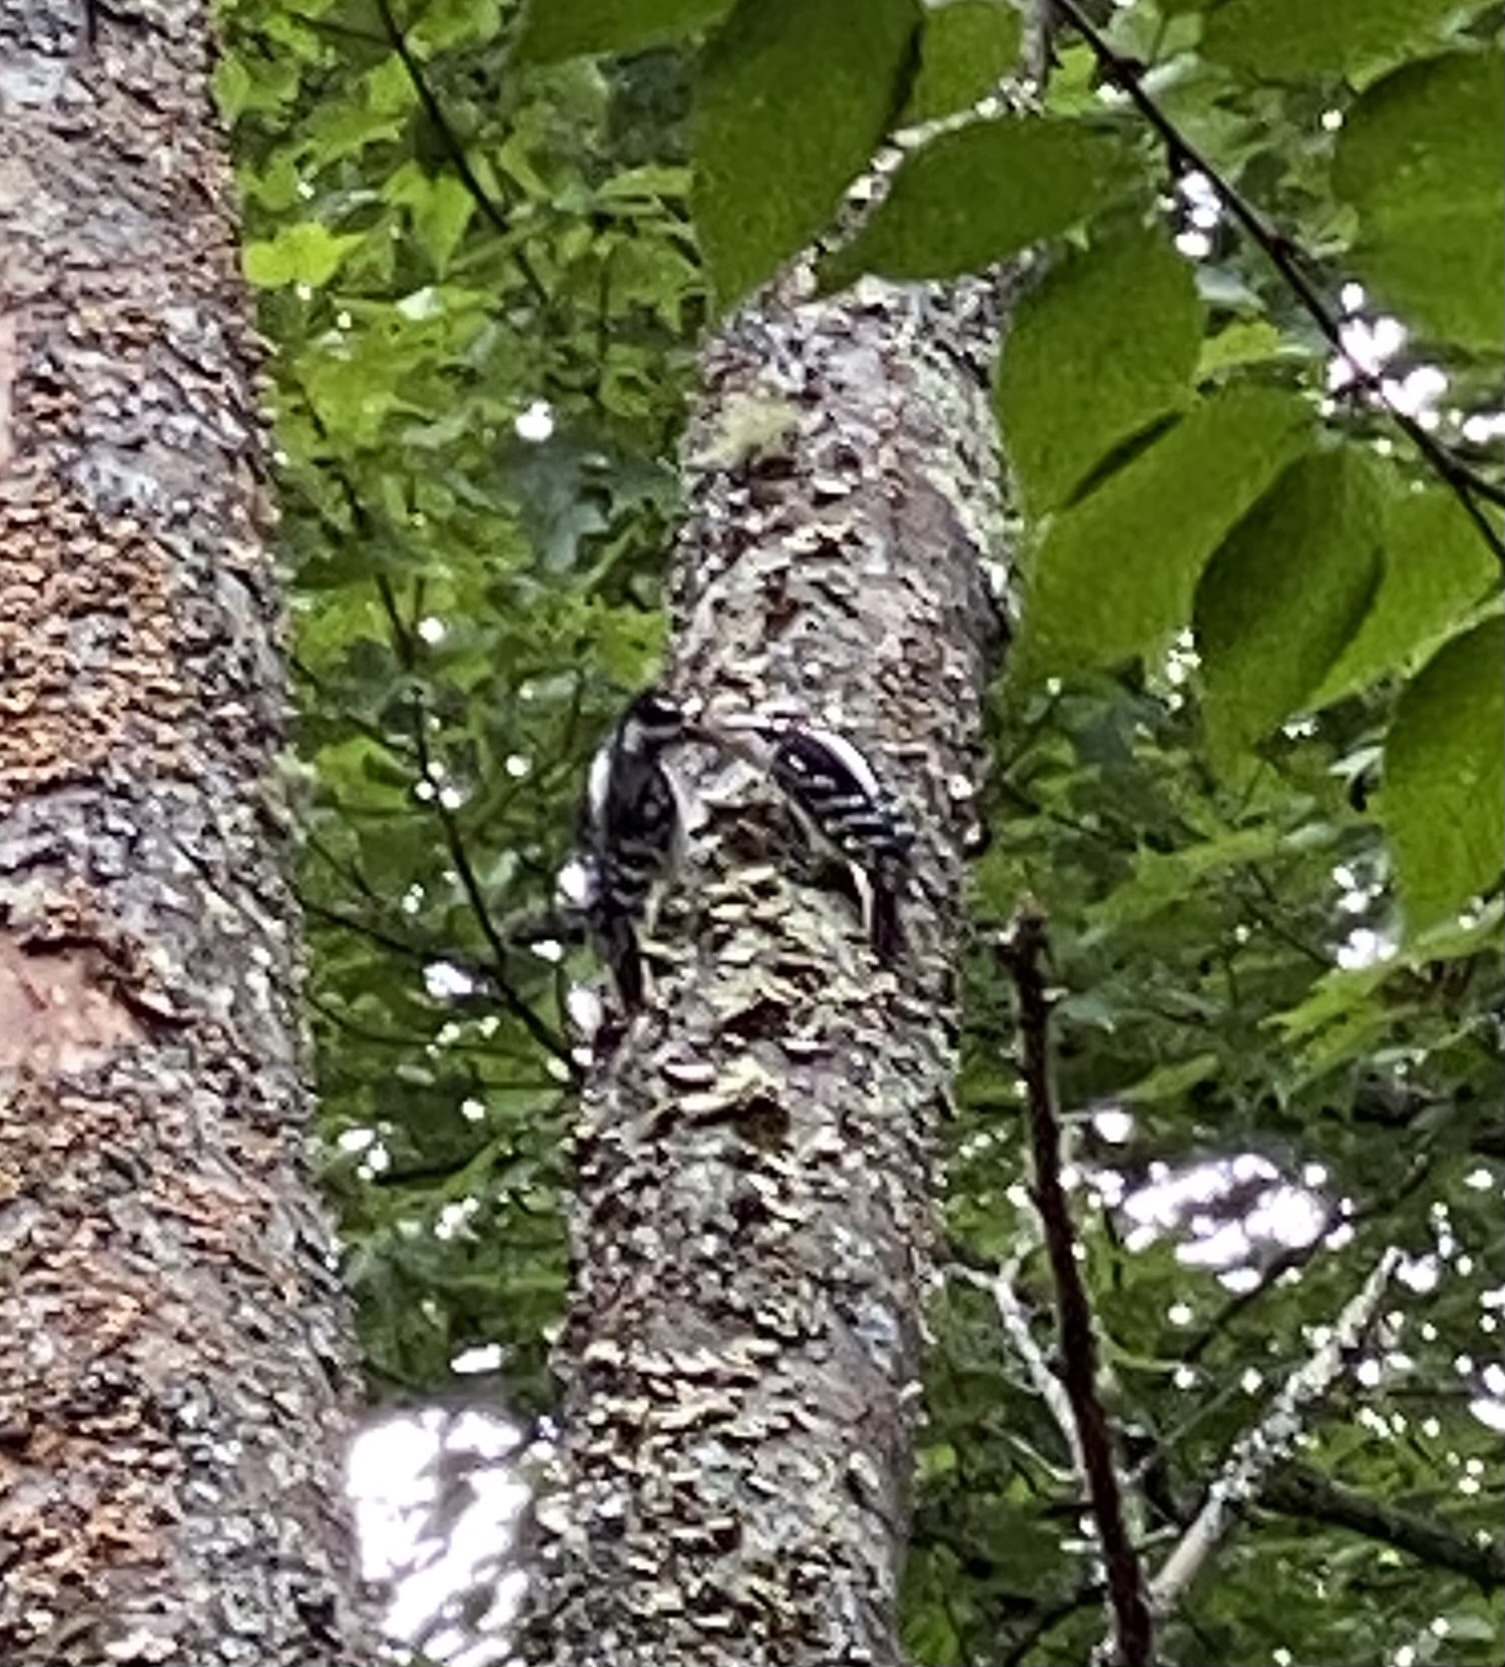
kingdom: Animalia
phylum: Chordata
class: Aves
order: Piciformes
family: Picidae
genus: Leuconotopicus
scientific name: Leuconotopicus villosus
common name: Hairy woodpecker
